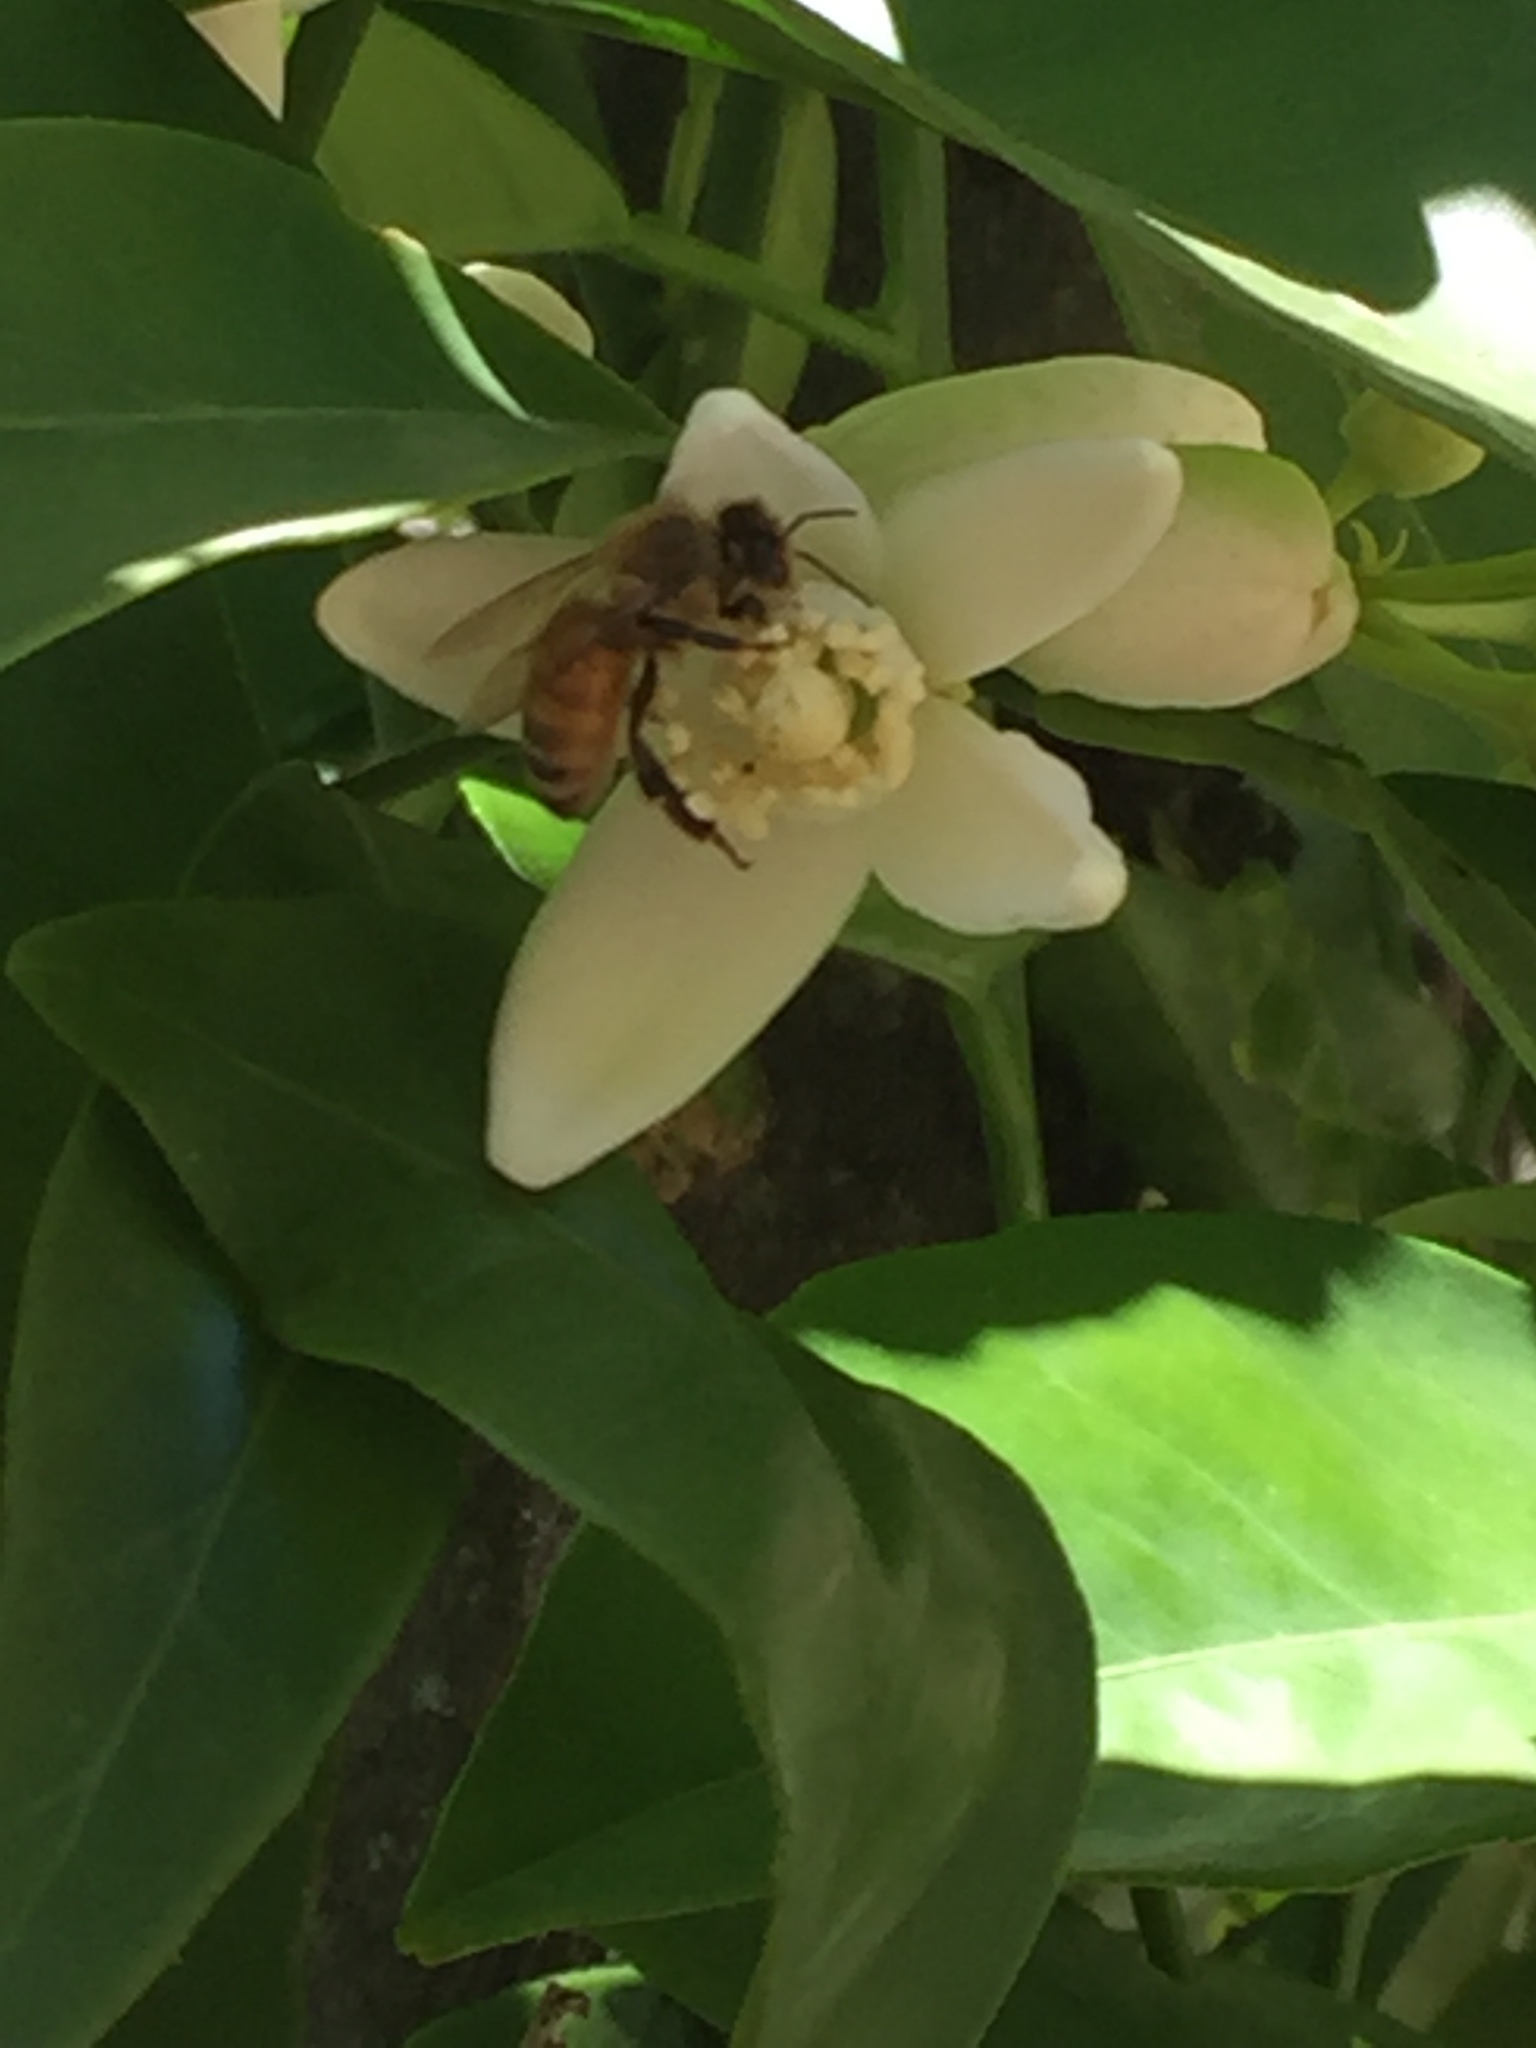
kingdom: Animalia
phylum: Arthropoda
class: Insecta
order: Hymenoptera
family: Apidae
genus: Apis
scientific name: Apis mellifera
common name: Honey bee
